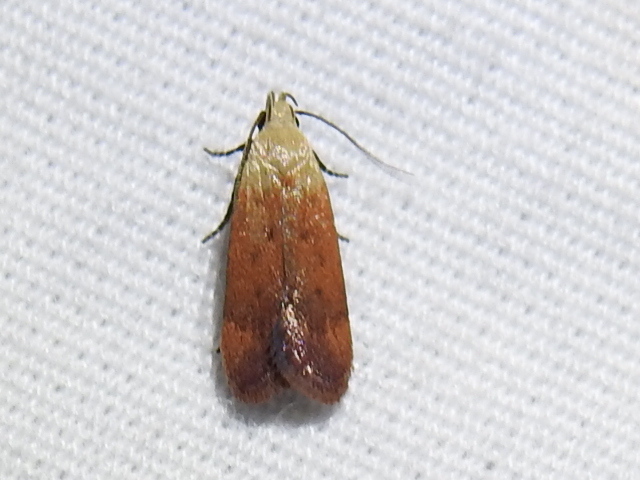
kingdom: Animalia
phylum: Arthropoda
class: Insecta
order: Lepidoptera
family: Gelechiidae
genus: Anacampsis
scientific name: Anacampsis fullonella
